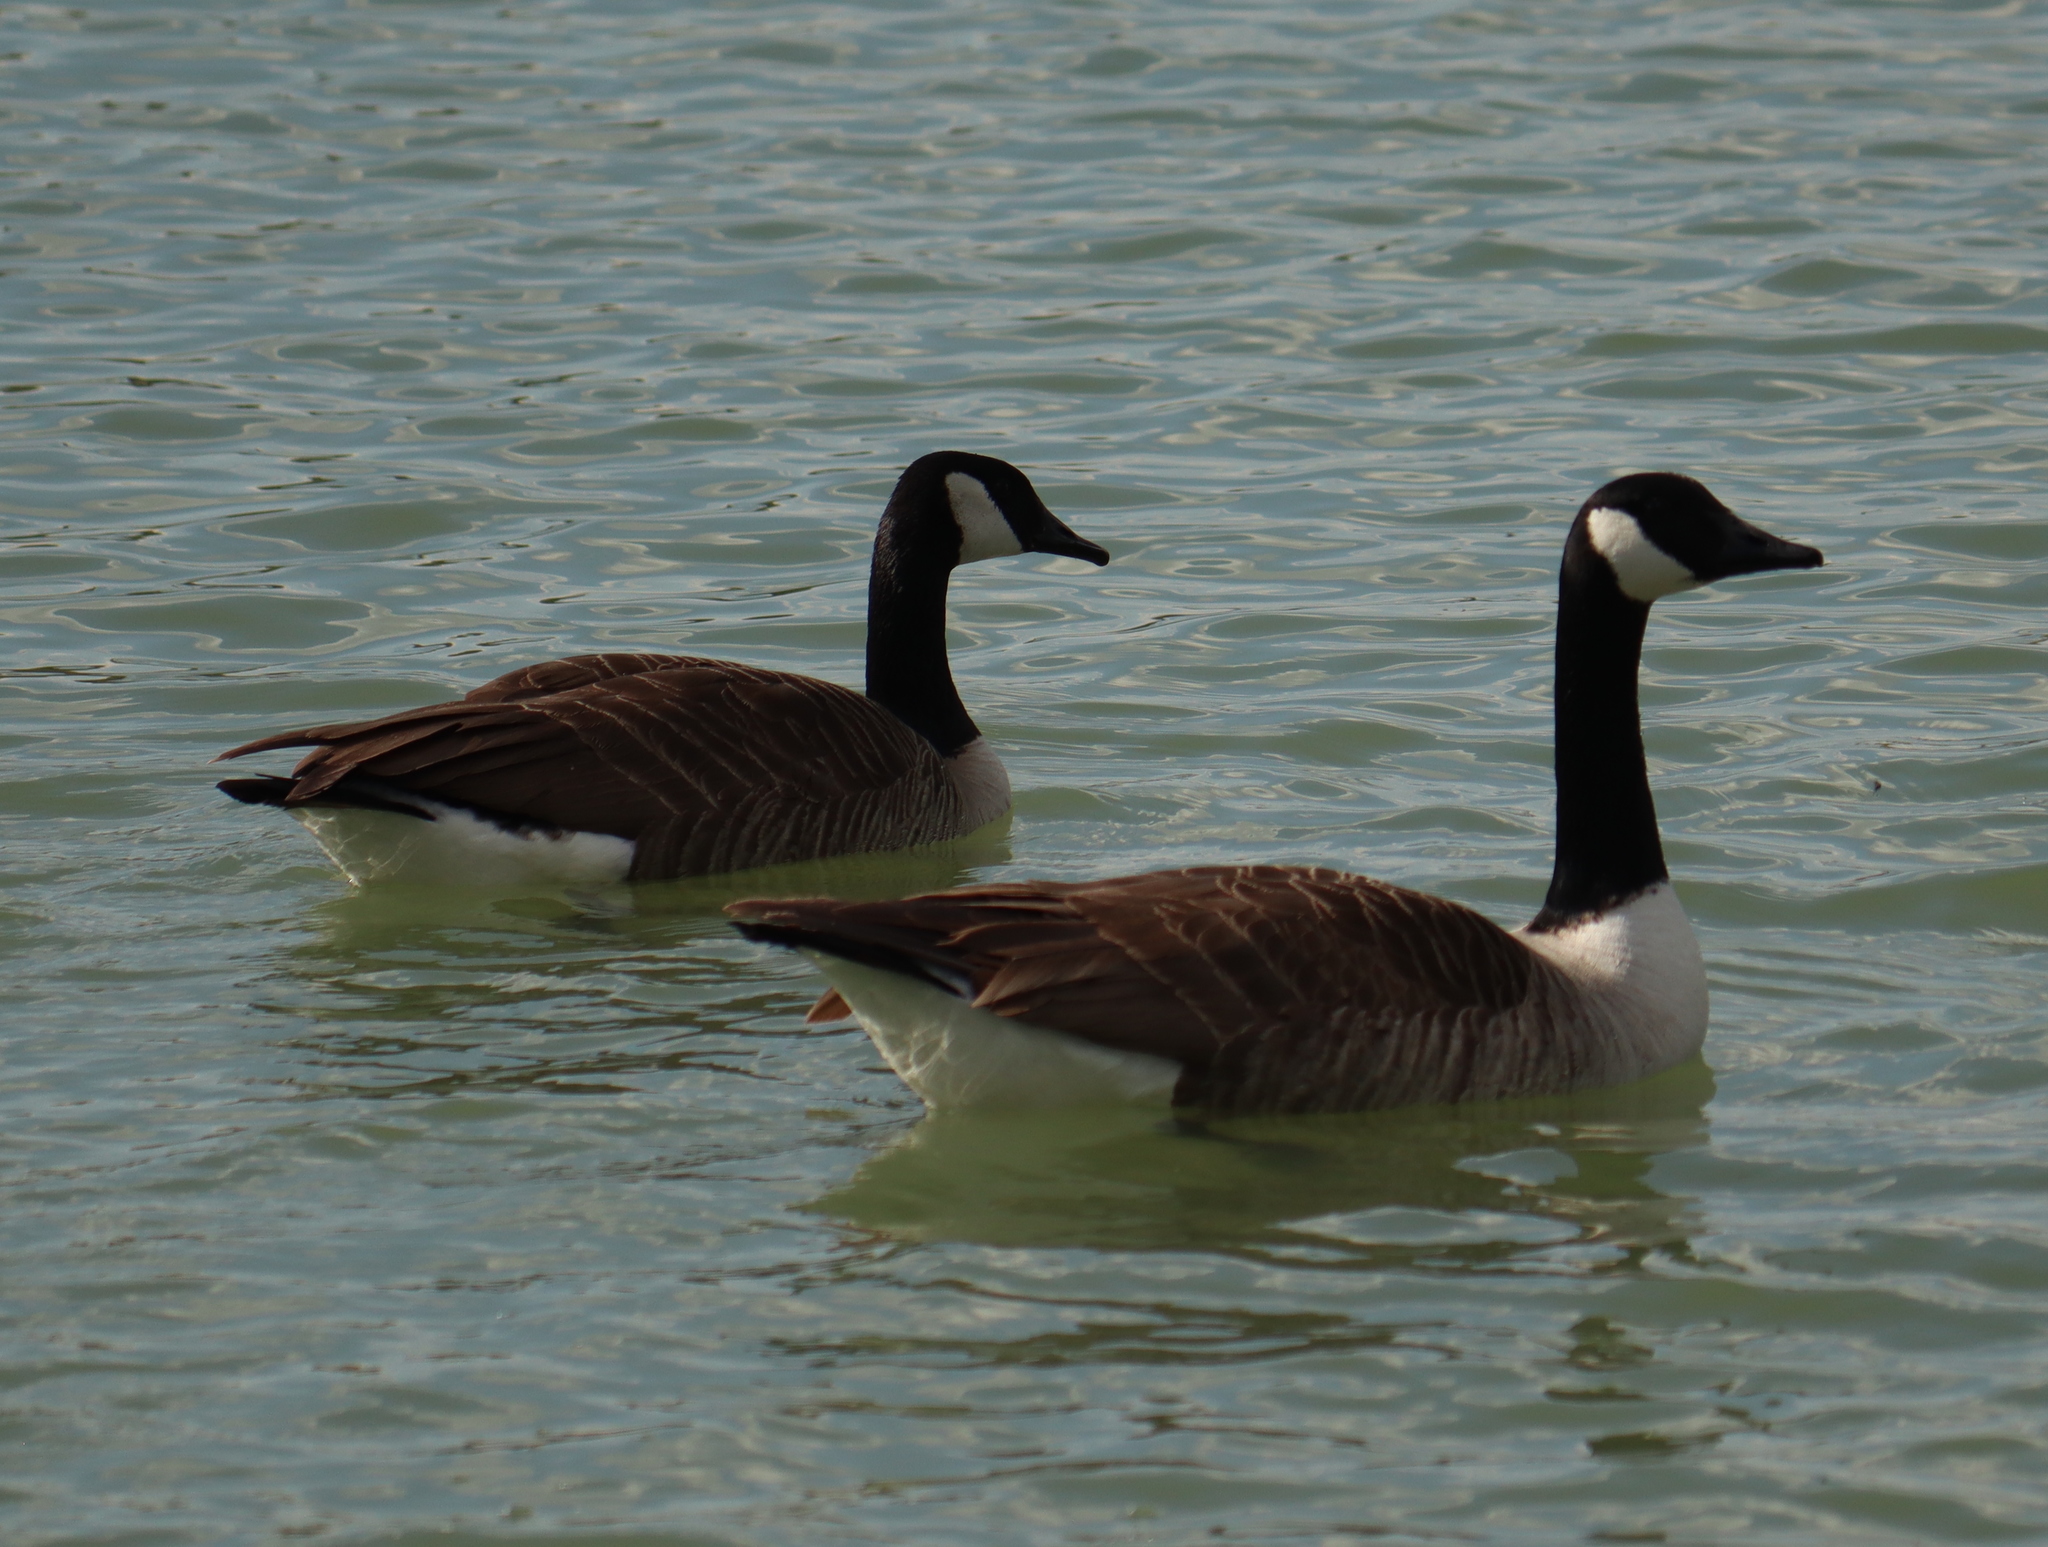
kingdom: Animalia
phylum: Chordata
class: Aves
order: Anseriformes
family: Anatidae
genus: Branta
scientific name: Branta canadensis
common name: Canada goose
